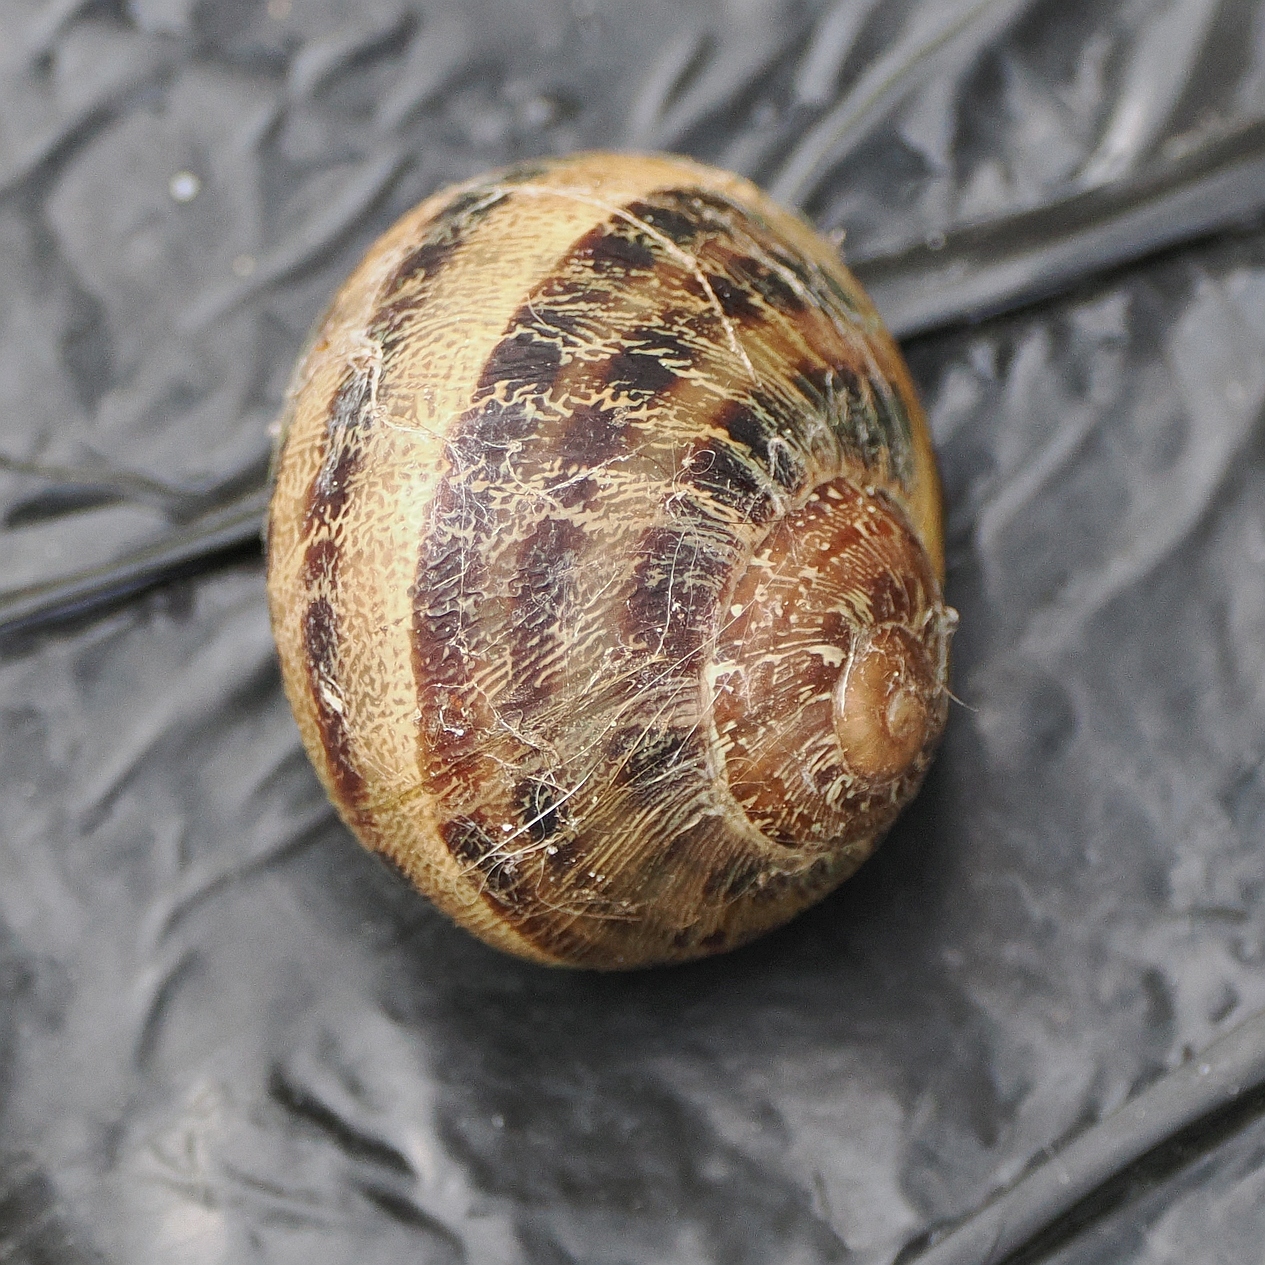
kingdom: Animalia
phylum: Mollusca
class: Gastropoda
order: Stylommatophora
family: Helicidae
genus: Cornu
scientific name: Cornu aspersum
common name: Brown garden snail
